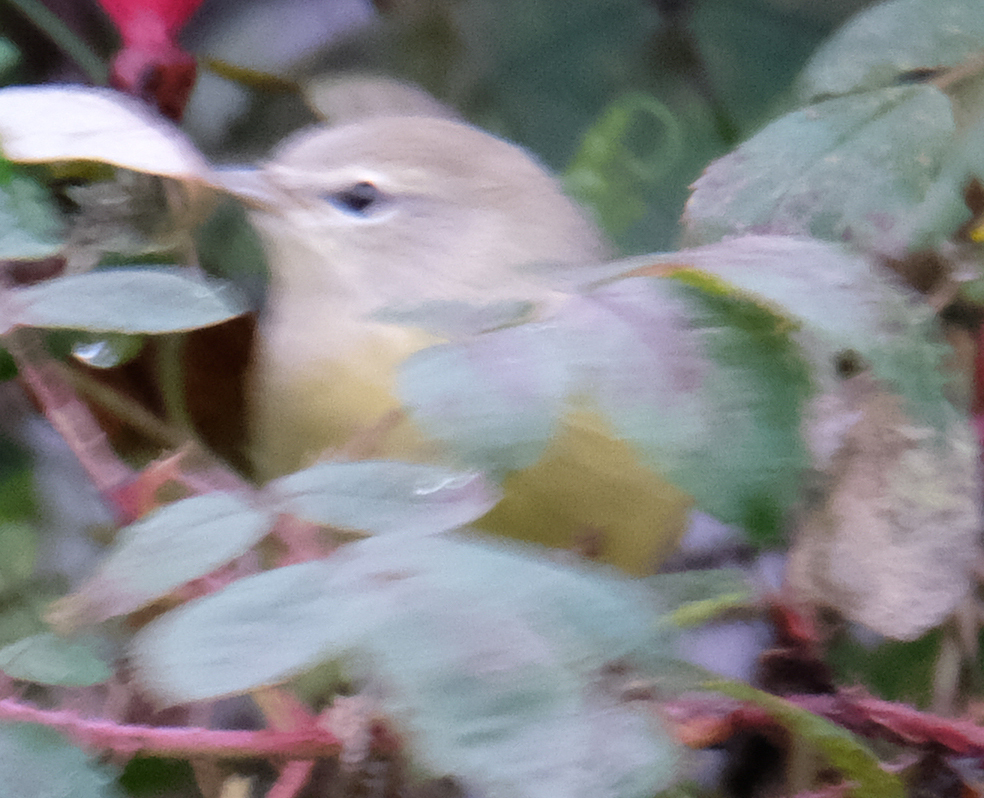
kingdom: Animalia
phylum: Chordata
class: Aves
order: Passeriformes
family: Parulidae
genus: Leiothlypis
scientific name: Leiothlypis celata
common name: Orange-crowned warbler
